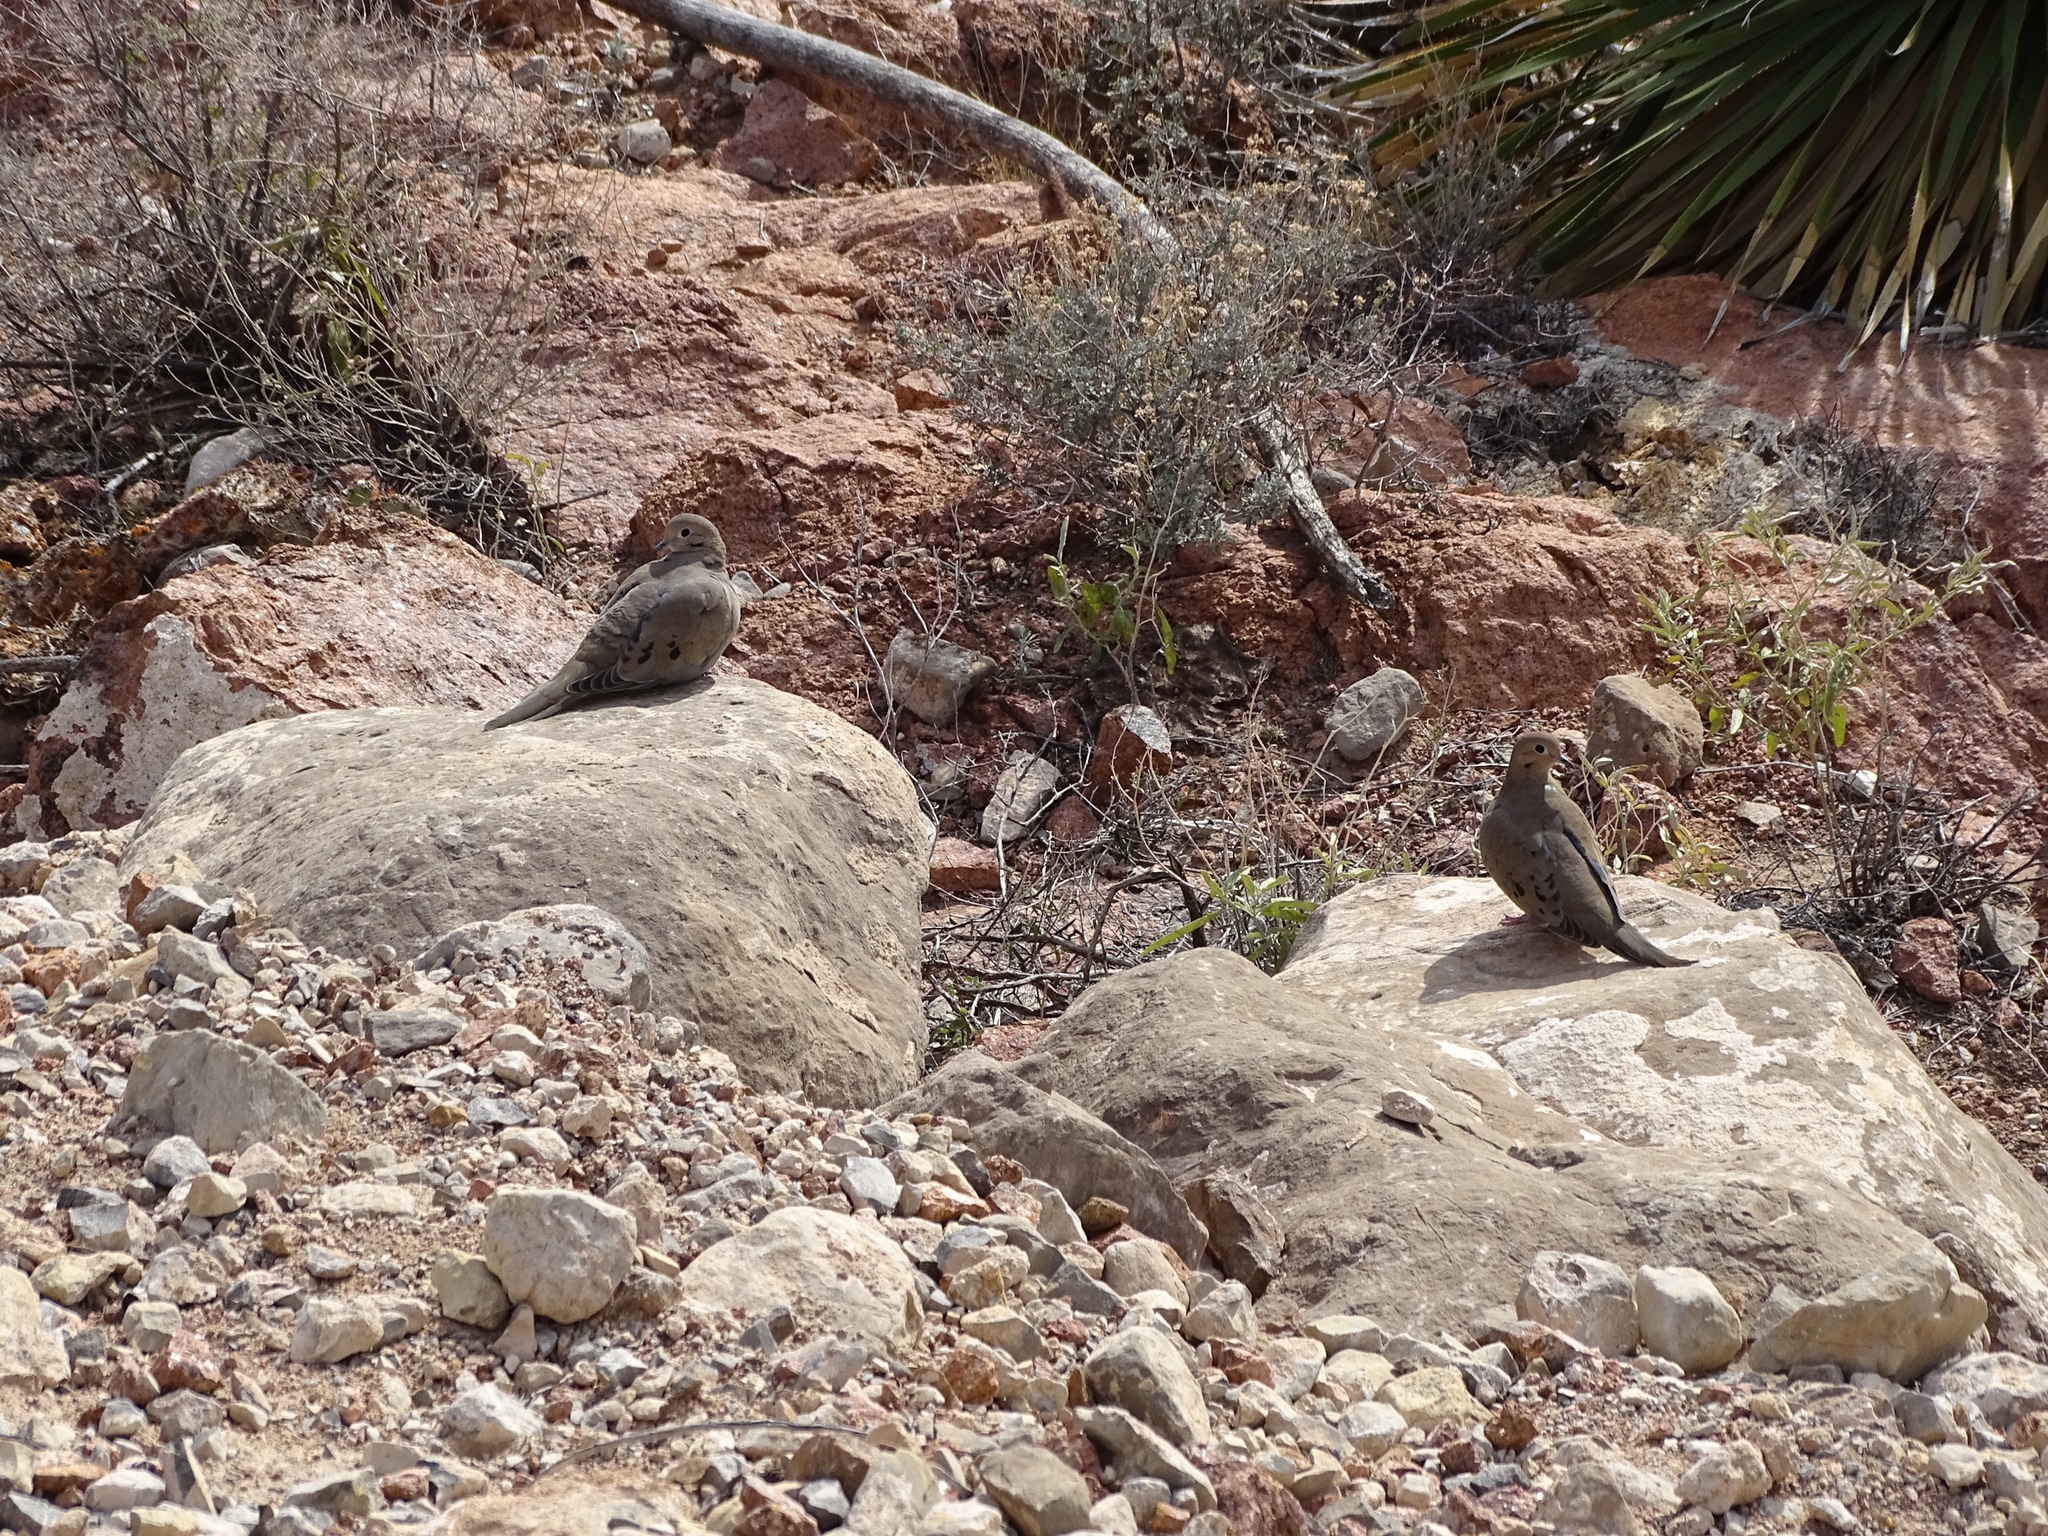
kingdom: Animalia
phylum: Chordata
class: Aves
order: Columbiformes
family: Columbidae
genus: Zenaida
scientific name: Zenaida macroura
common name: Mourning dove
